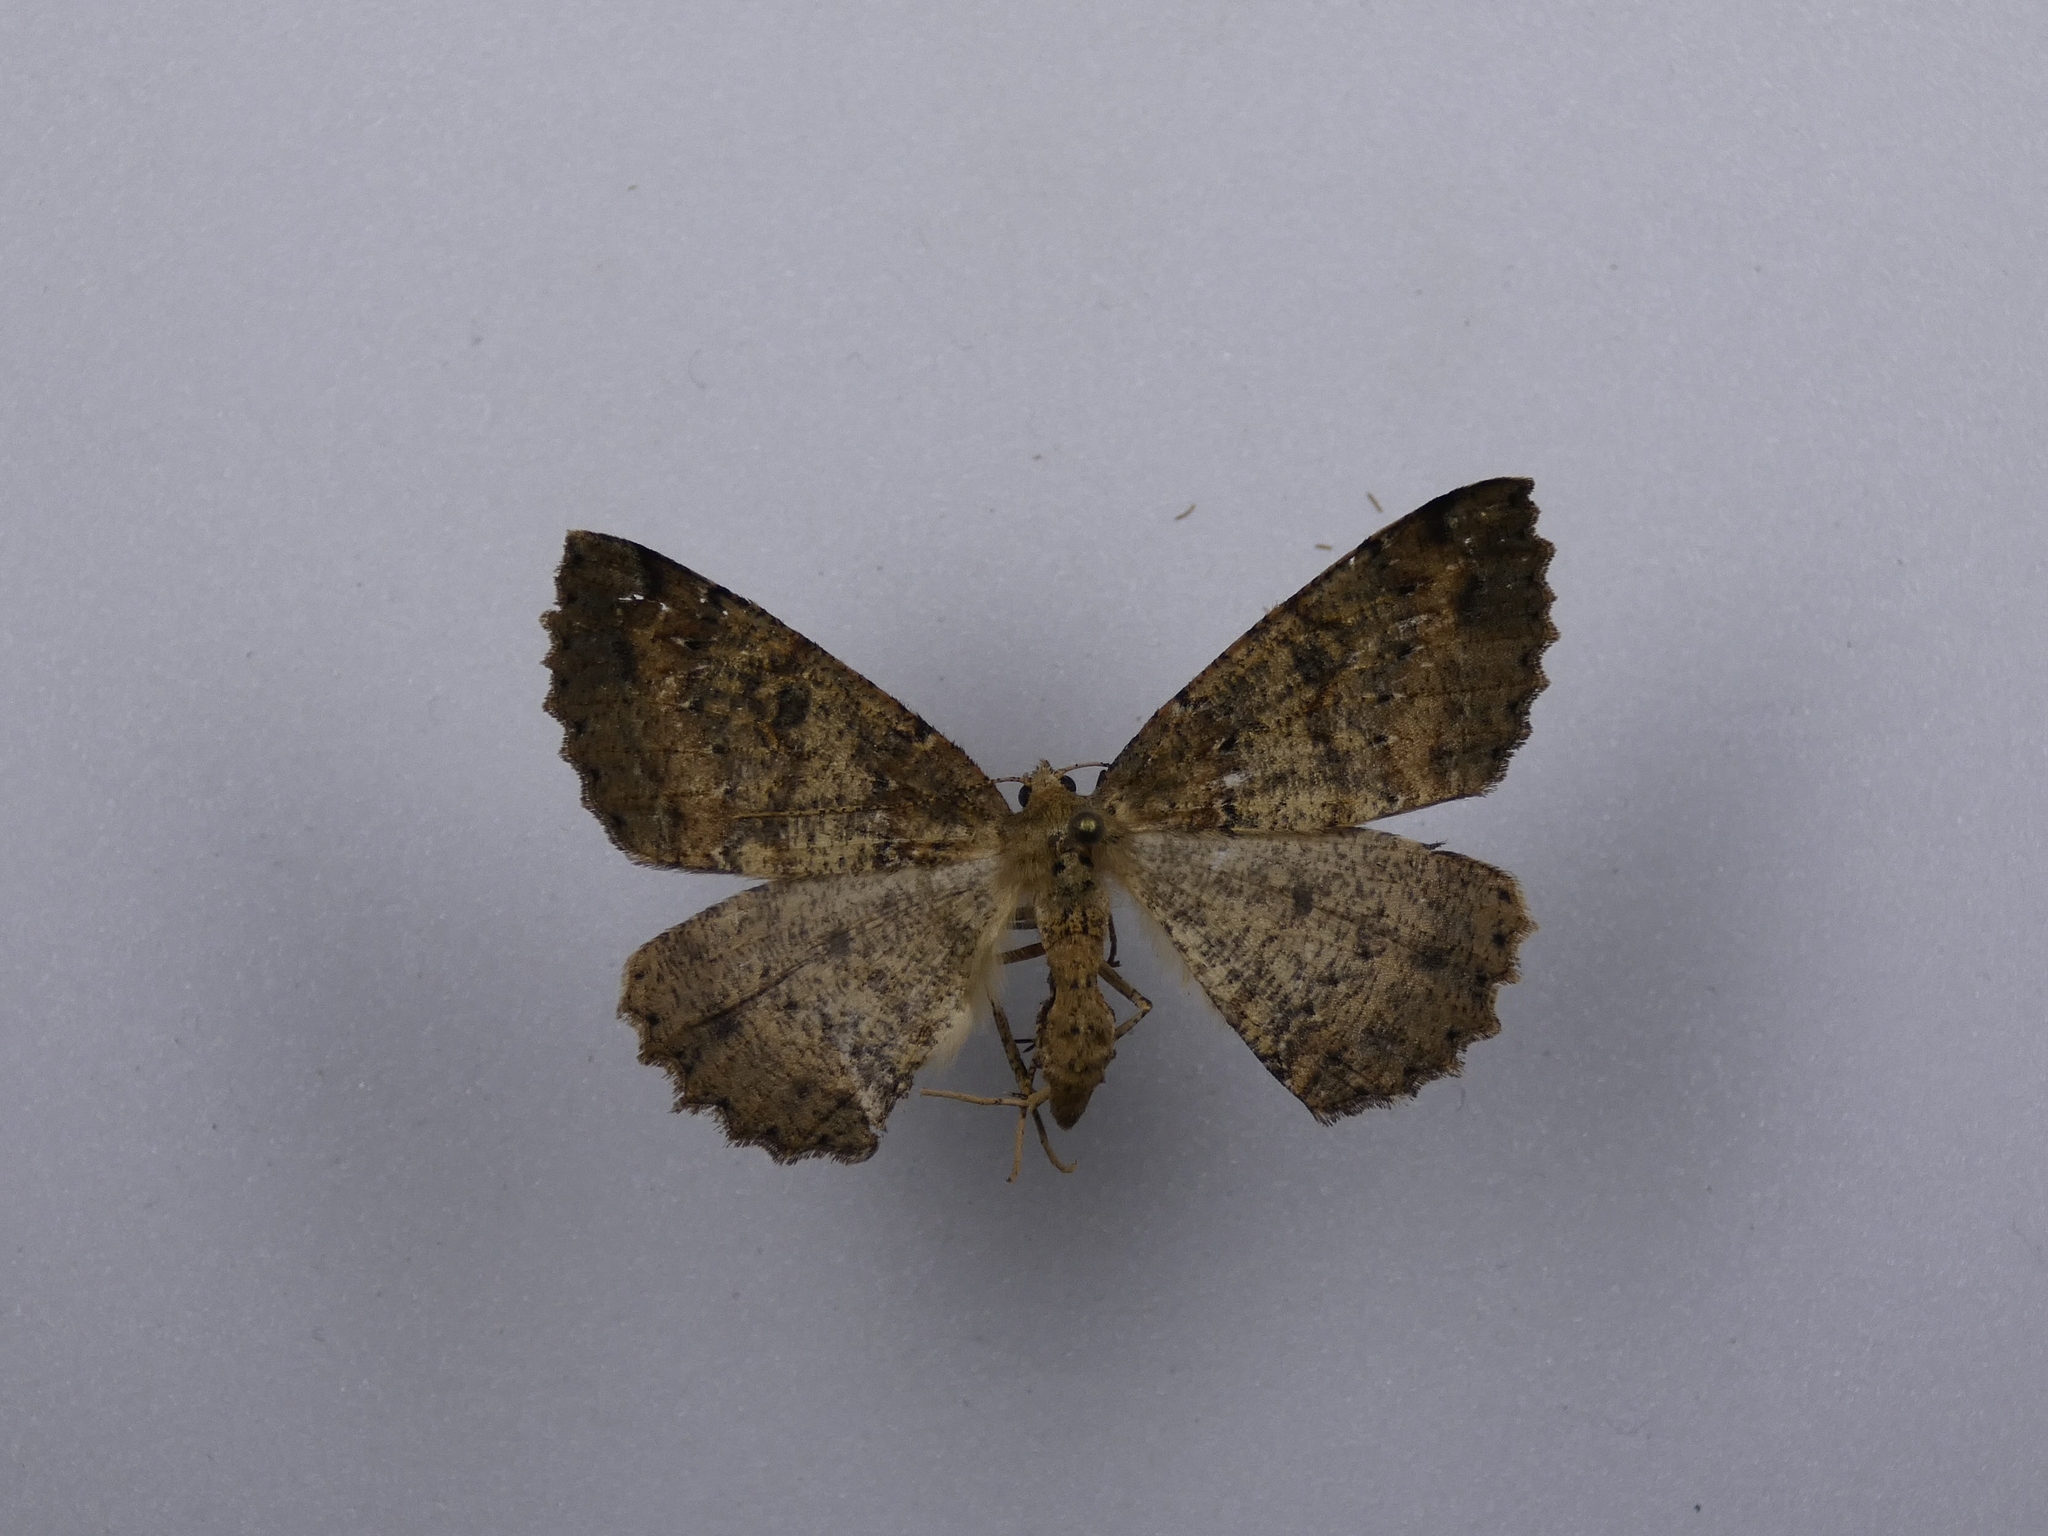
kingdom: Animalia
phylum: Arthropoda
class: Insecta
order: Lepidoptera
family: Geometridae
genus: Cleora
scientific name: Cleora scriptaria
